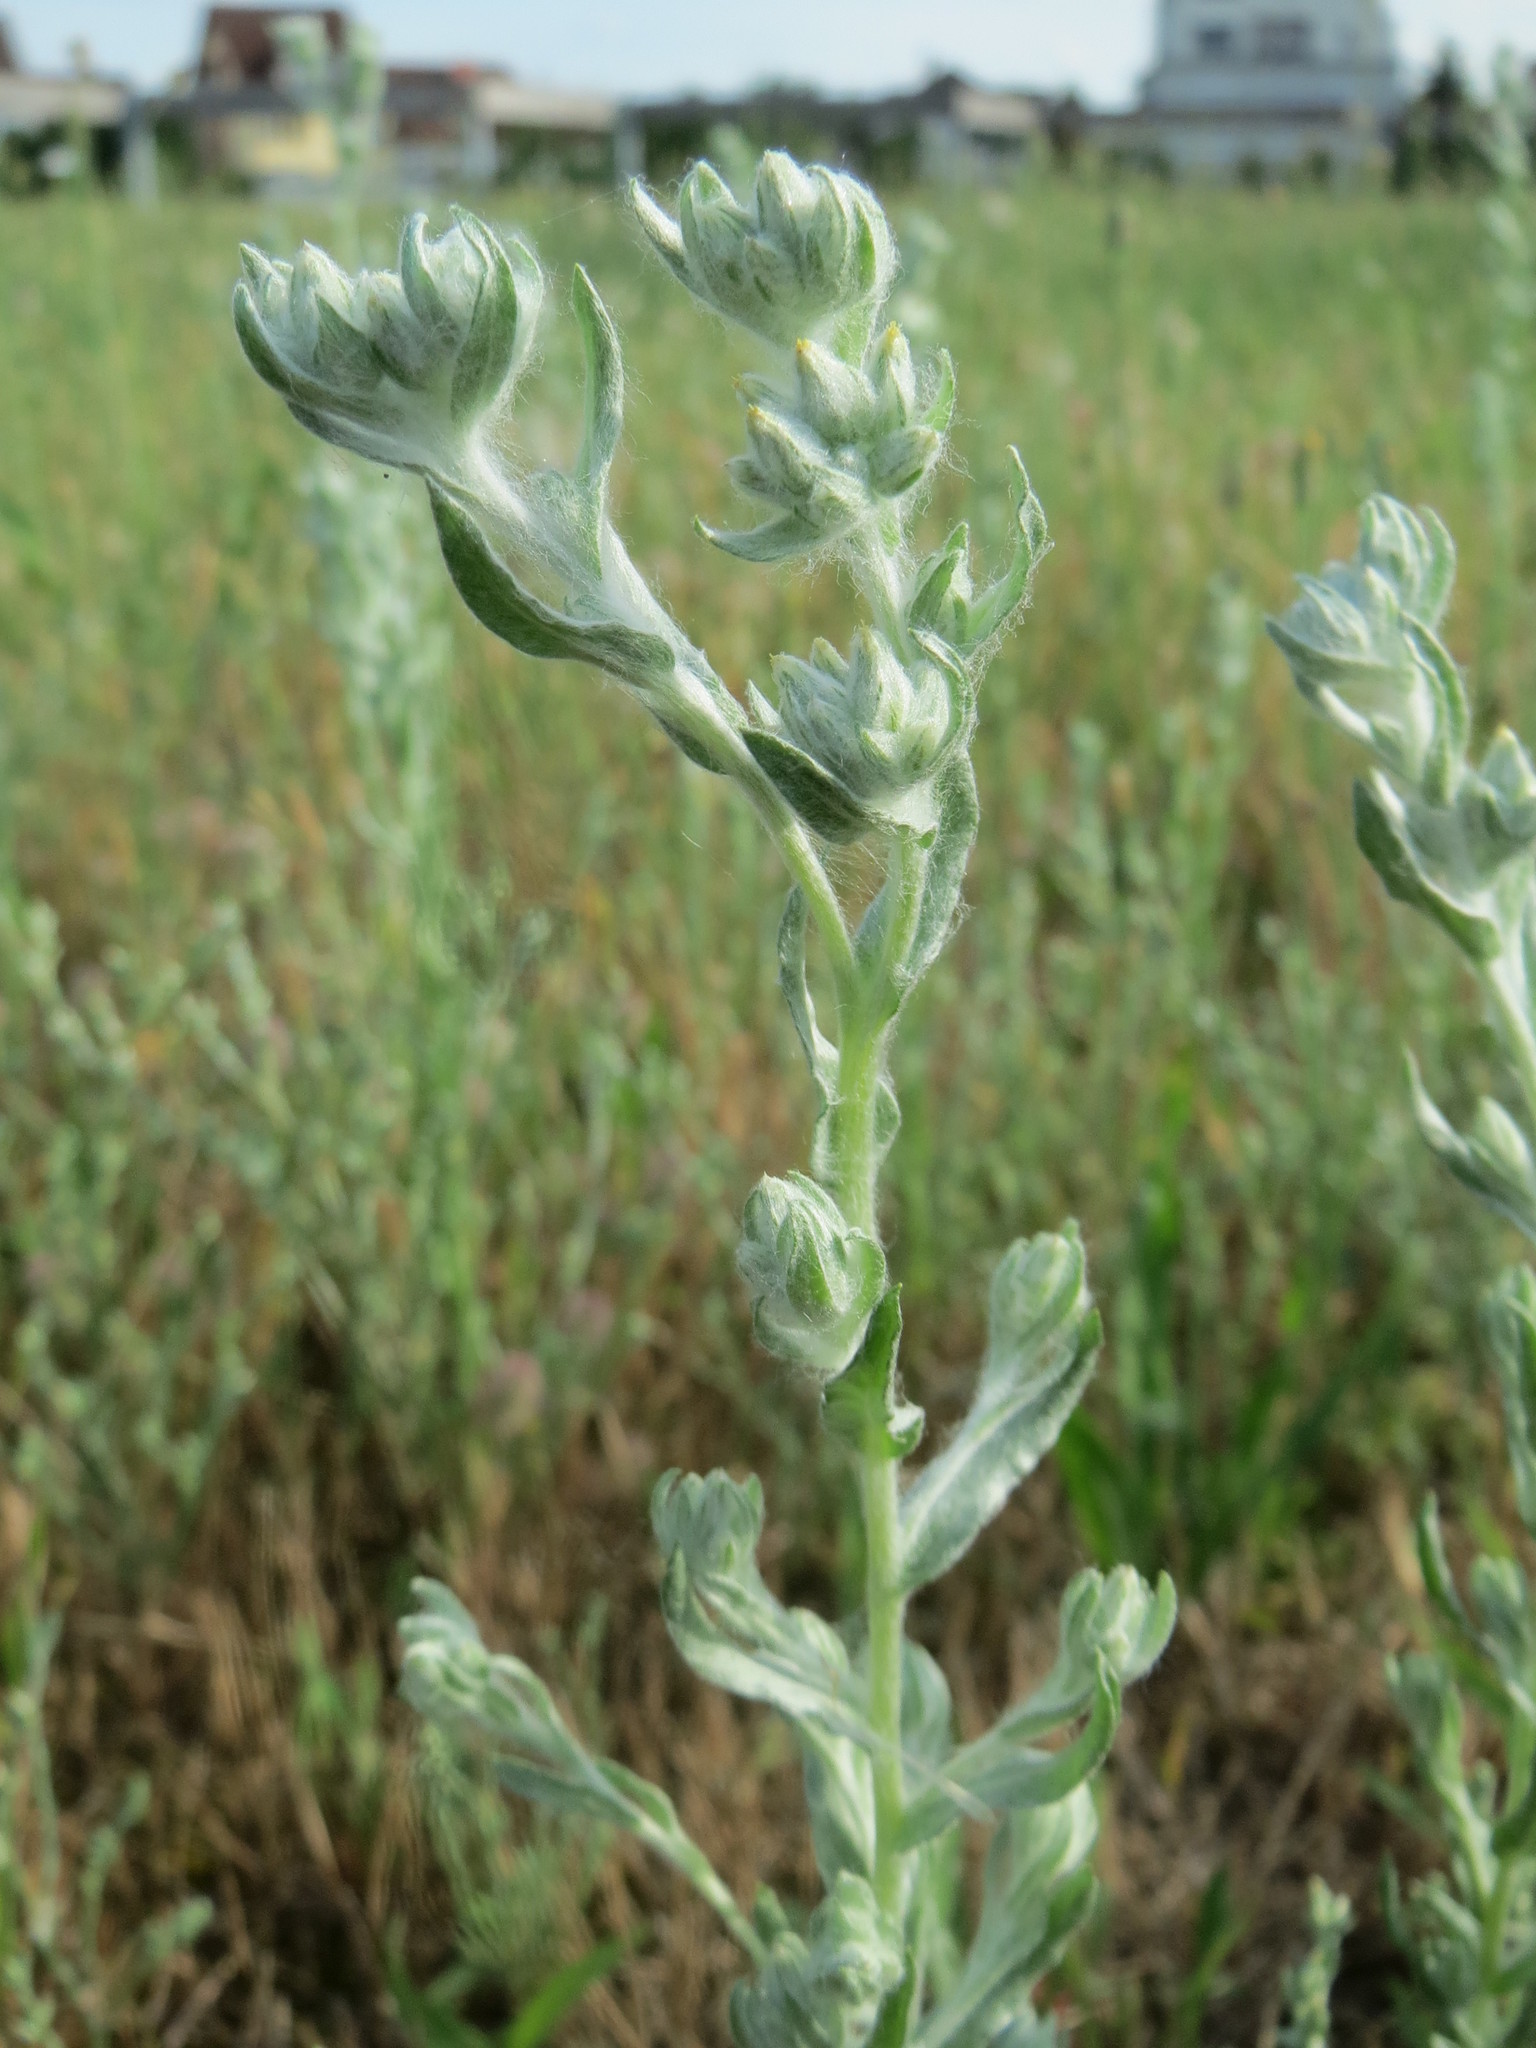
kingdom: Plantae
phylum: Tracheophyta
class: Magnoliopsida
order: Asterales
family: Asteraceae
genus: Filago
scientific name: Filago arvensis
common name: Field cudweed
